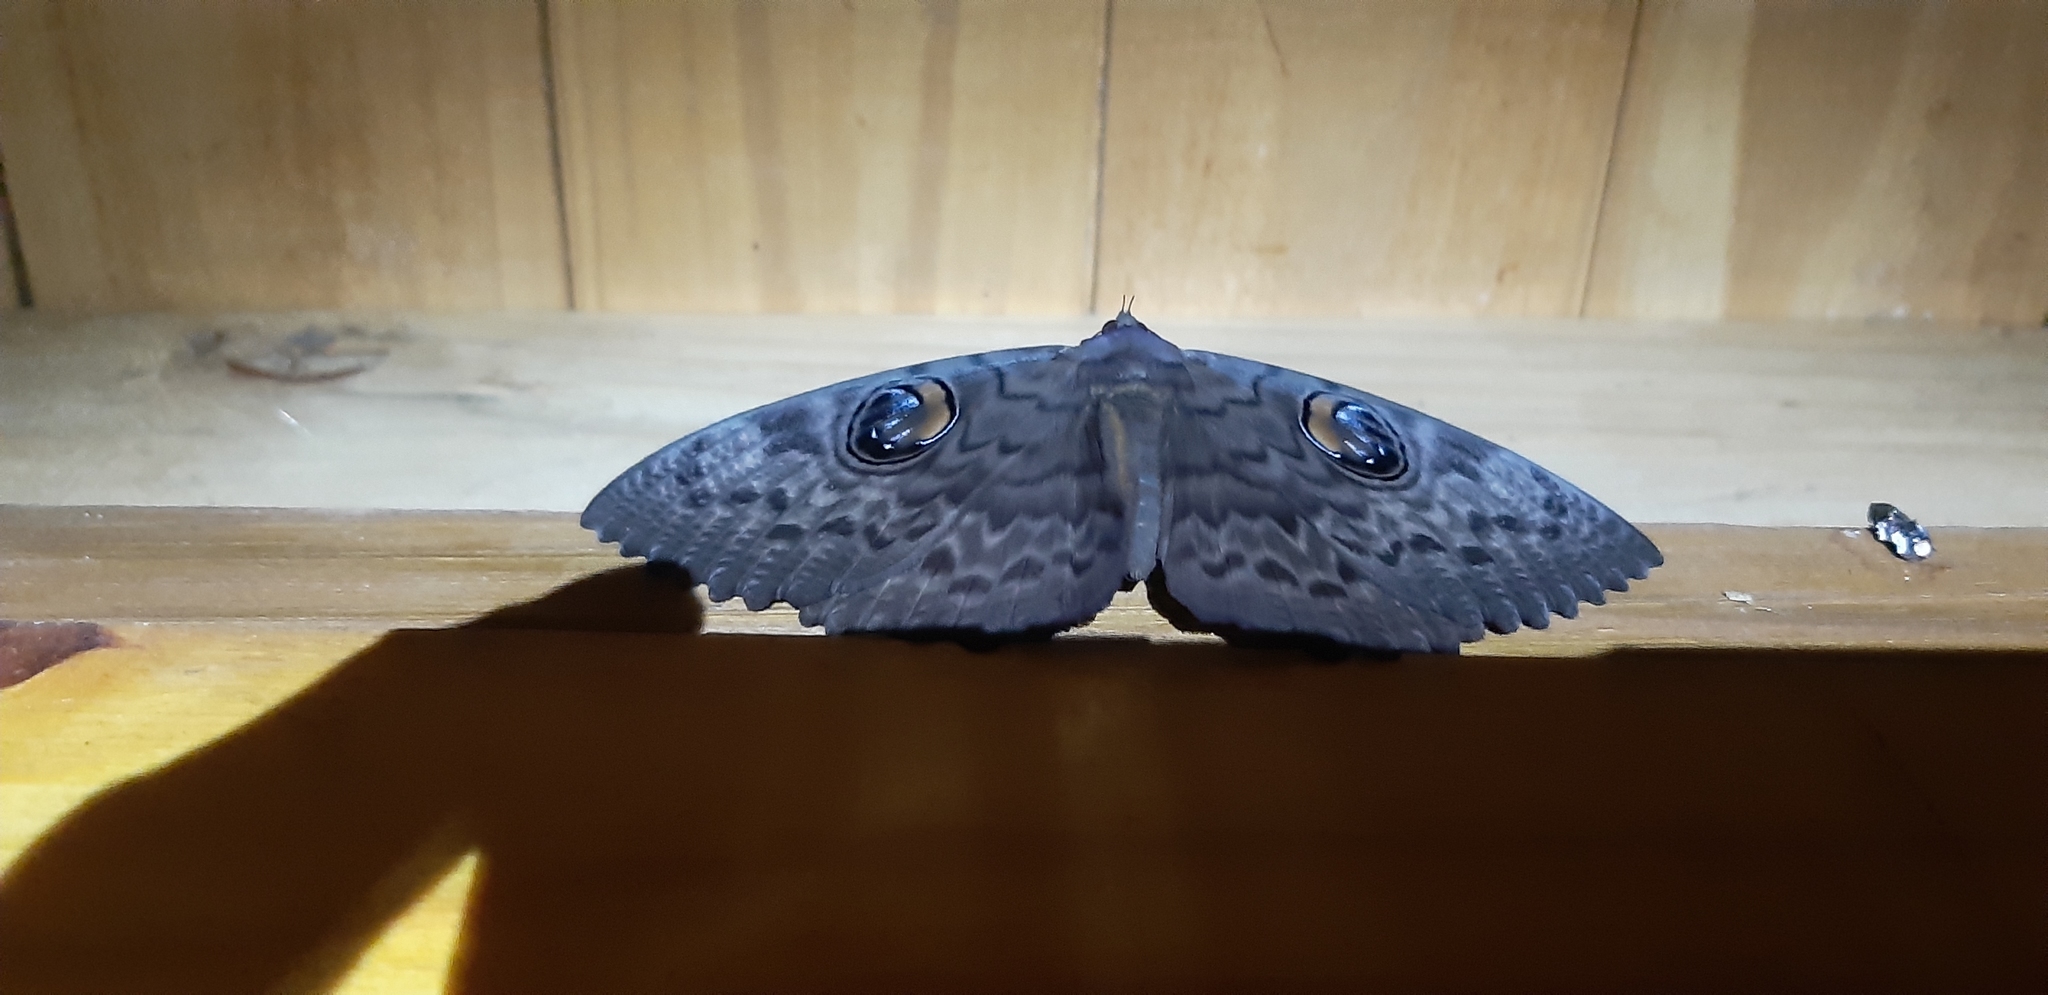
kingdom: Animalia
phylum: Arthropoda
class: Insecta
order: Lepidoptera
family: Erebidae
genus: Erebus
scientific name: Erebus walkeri
